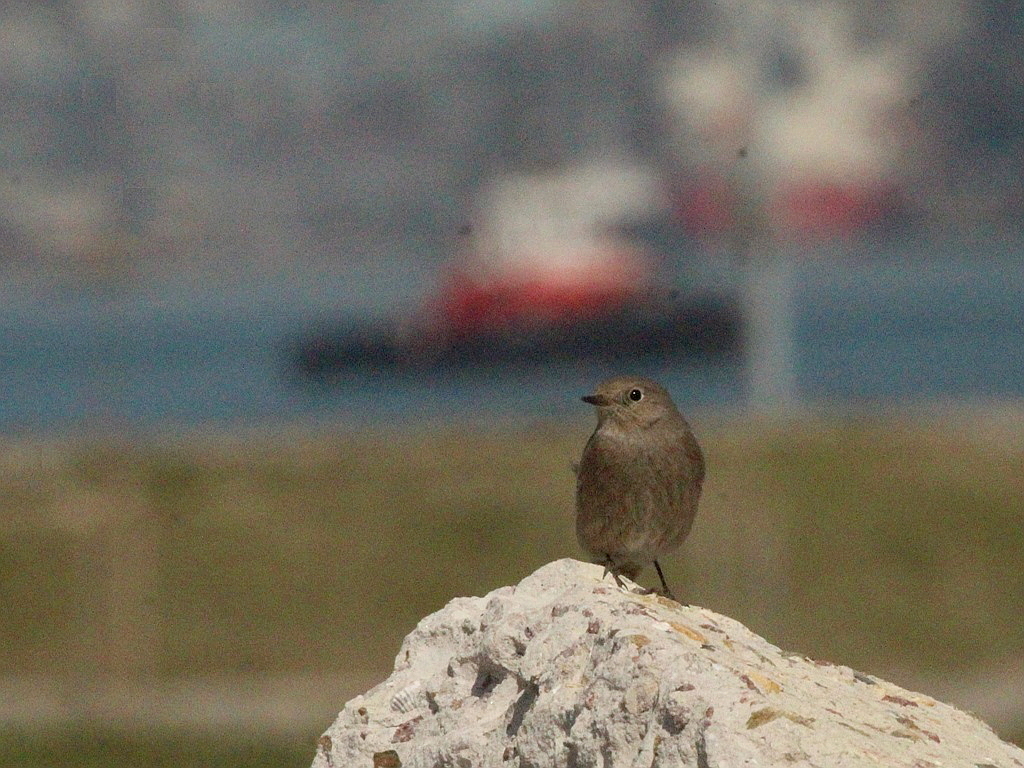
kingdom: Animalia
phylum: Chordata
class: Aves
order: Passeriformes
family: Muscicapidae
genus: Phoenicurus
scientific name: Phoenicurus ochruros
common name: Black redstart
